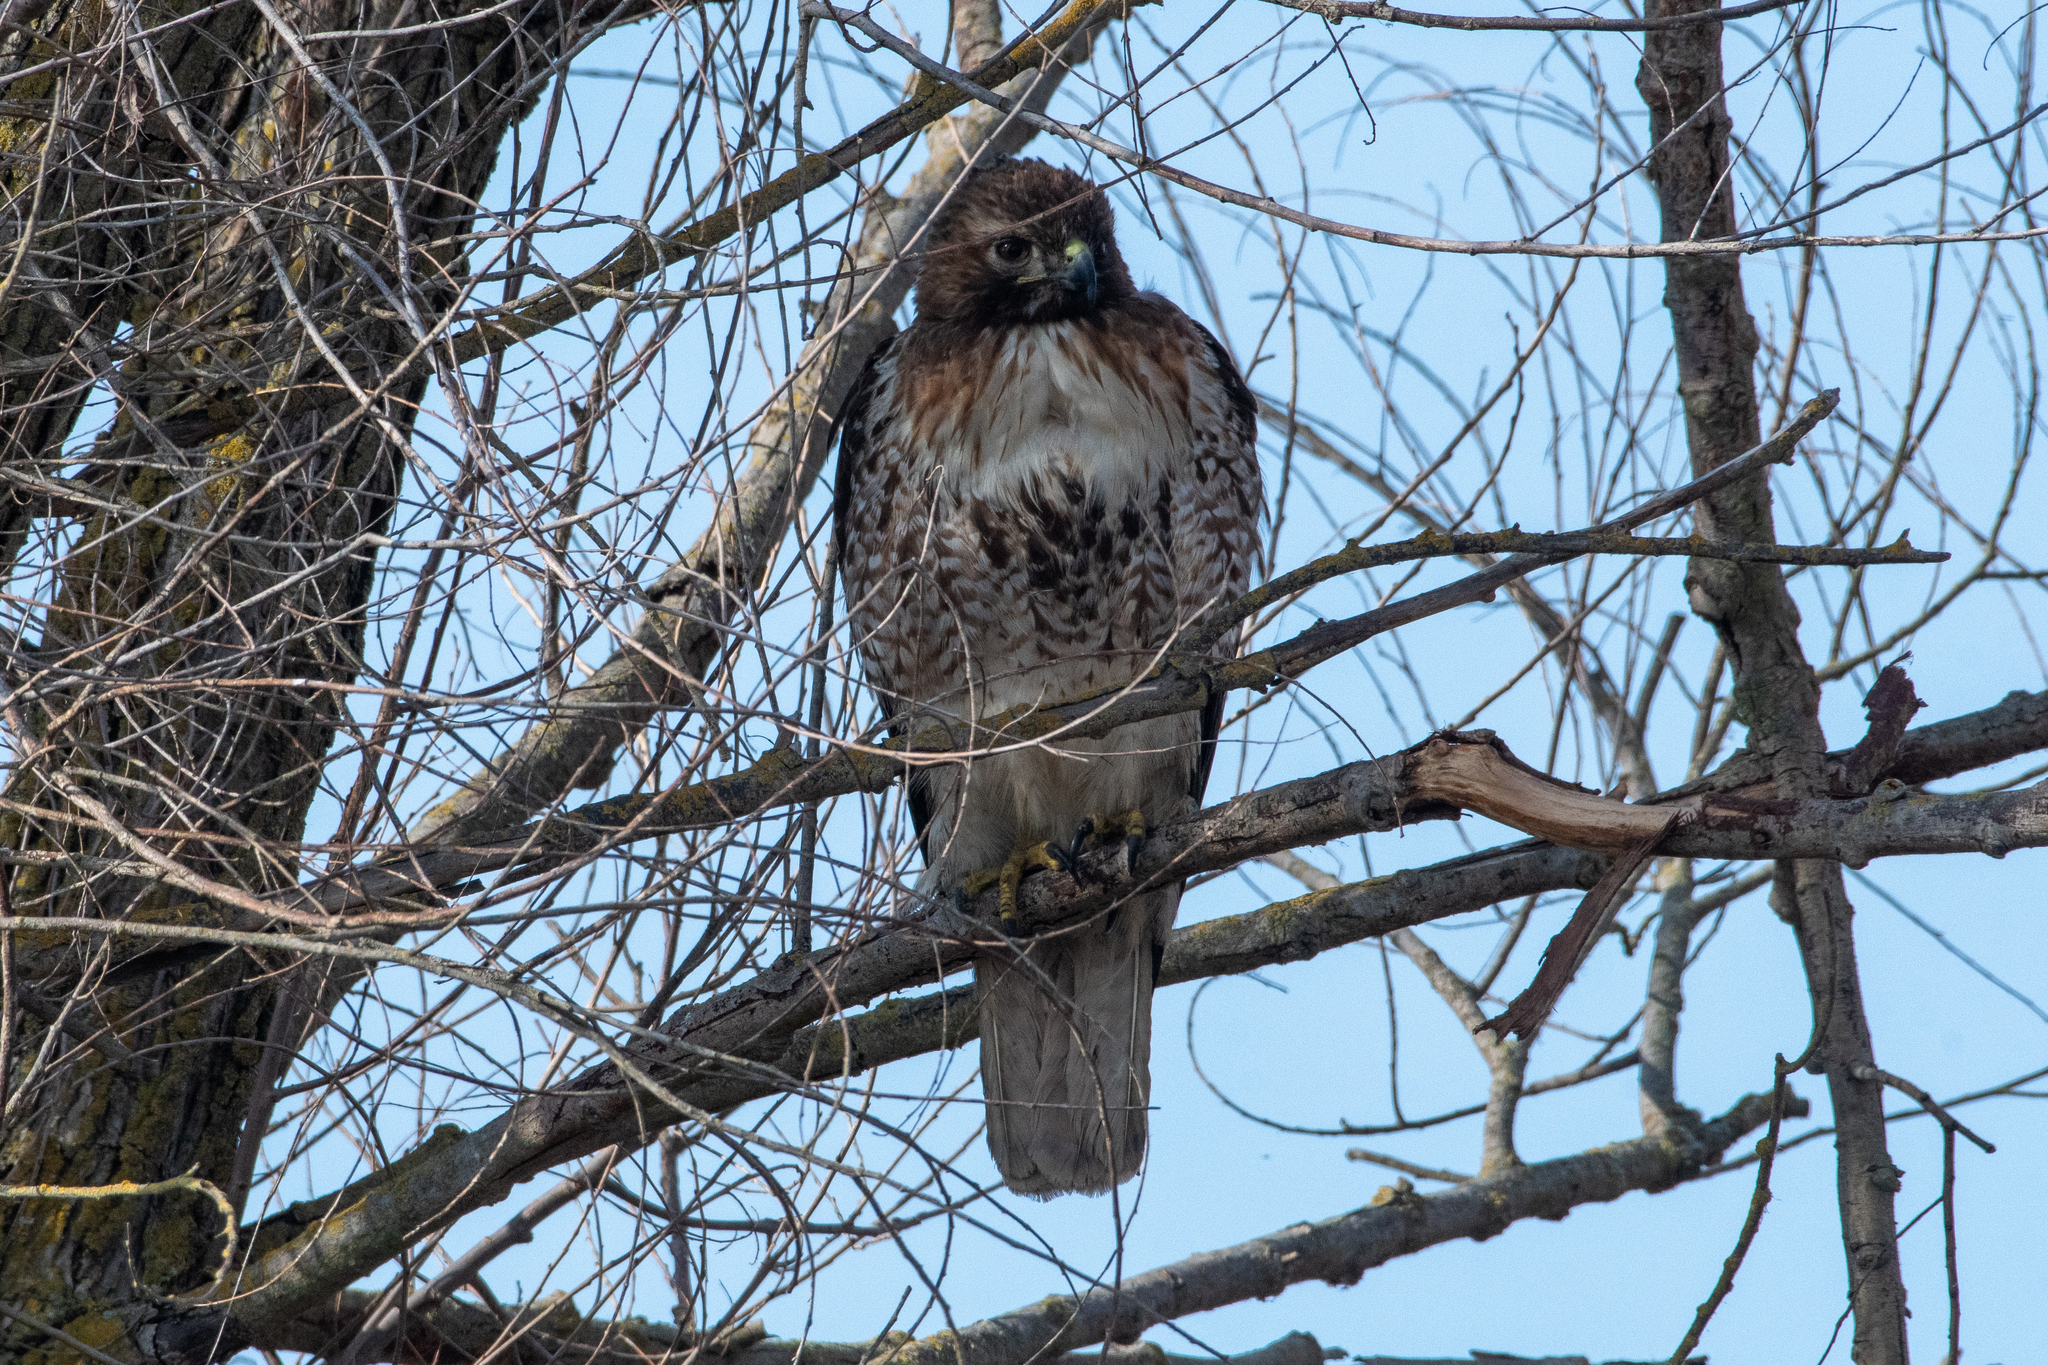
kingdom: Animalia
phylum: Chordata
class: Aves
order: Accipitriformes
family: Accipitridae
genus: Buteo
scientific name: Buteo jamaicensis
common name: Red-tailed hawk
